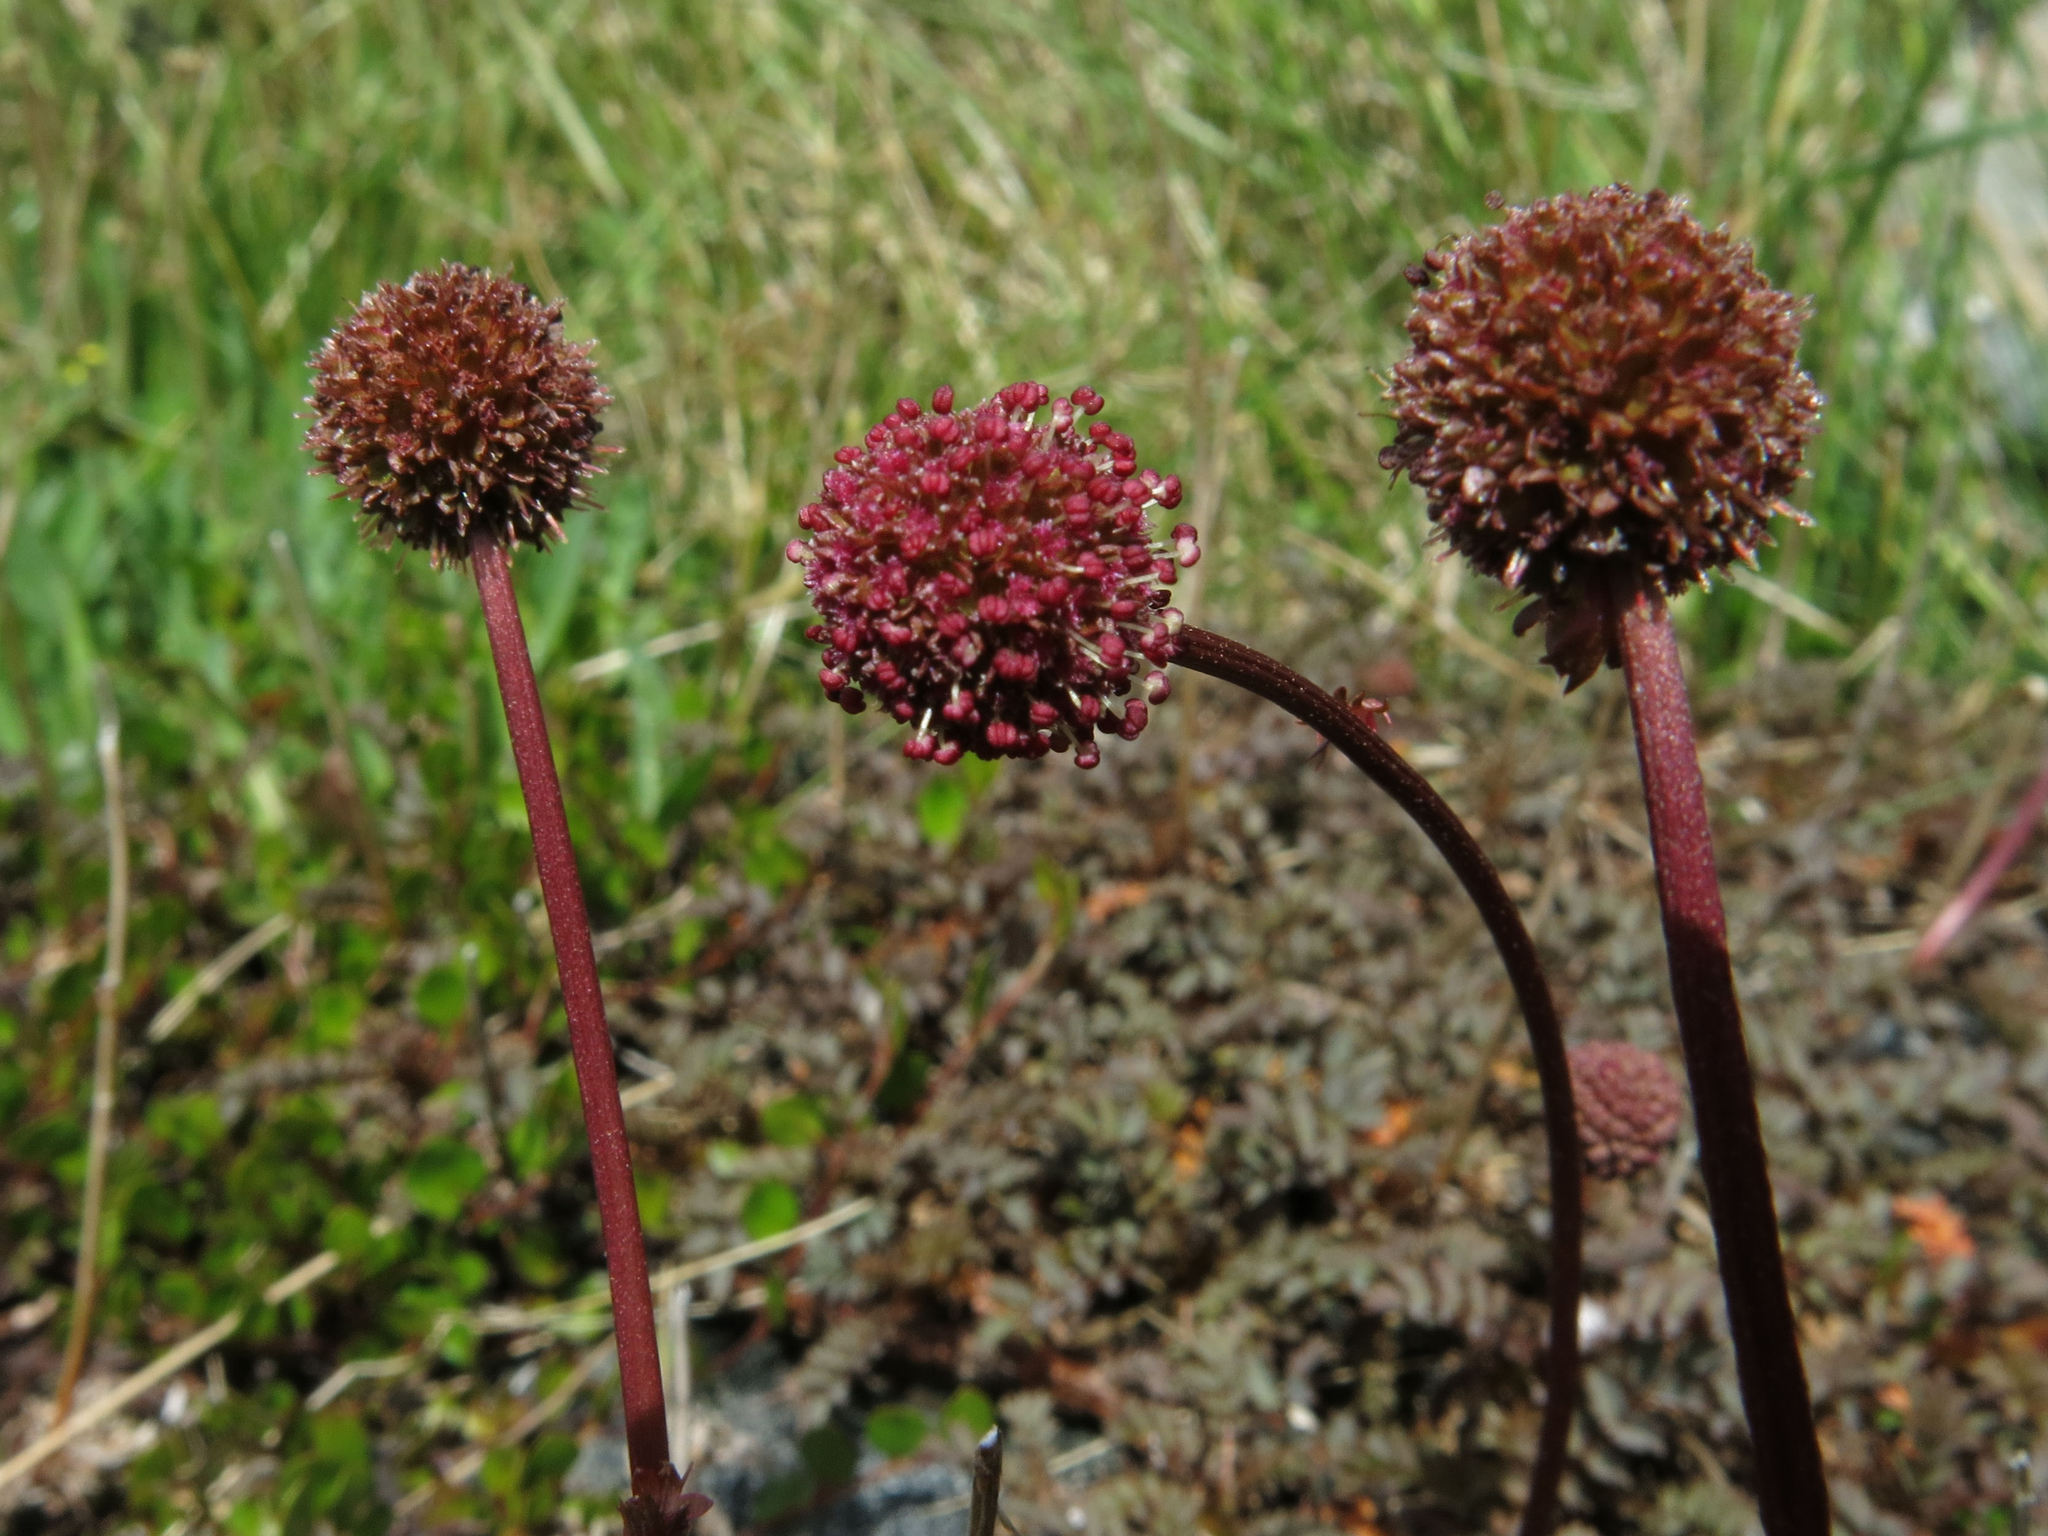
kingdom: Plantae
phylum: Tracheophyta
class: Magnoliopsida
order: Rosales
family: Rosaceae
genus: Acaena
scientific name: Acaena saccaticupula
